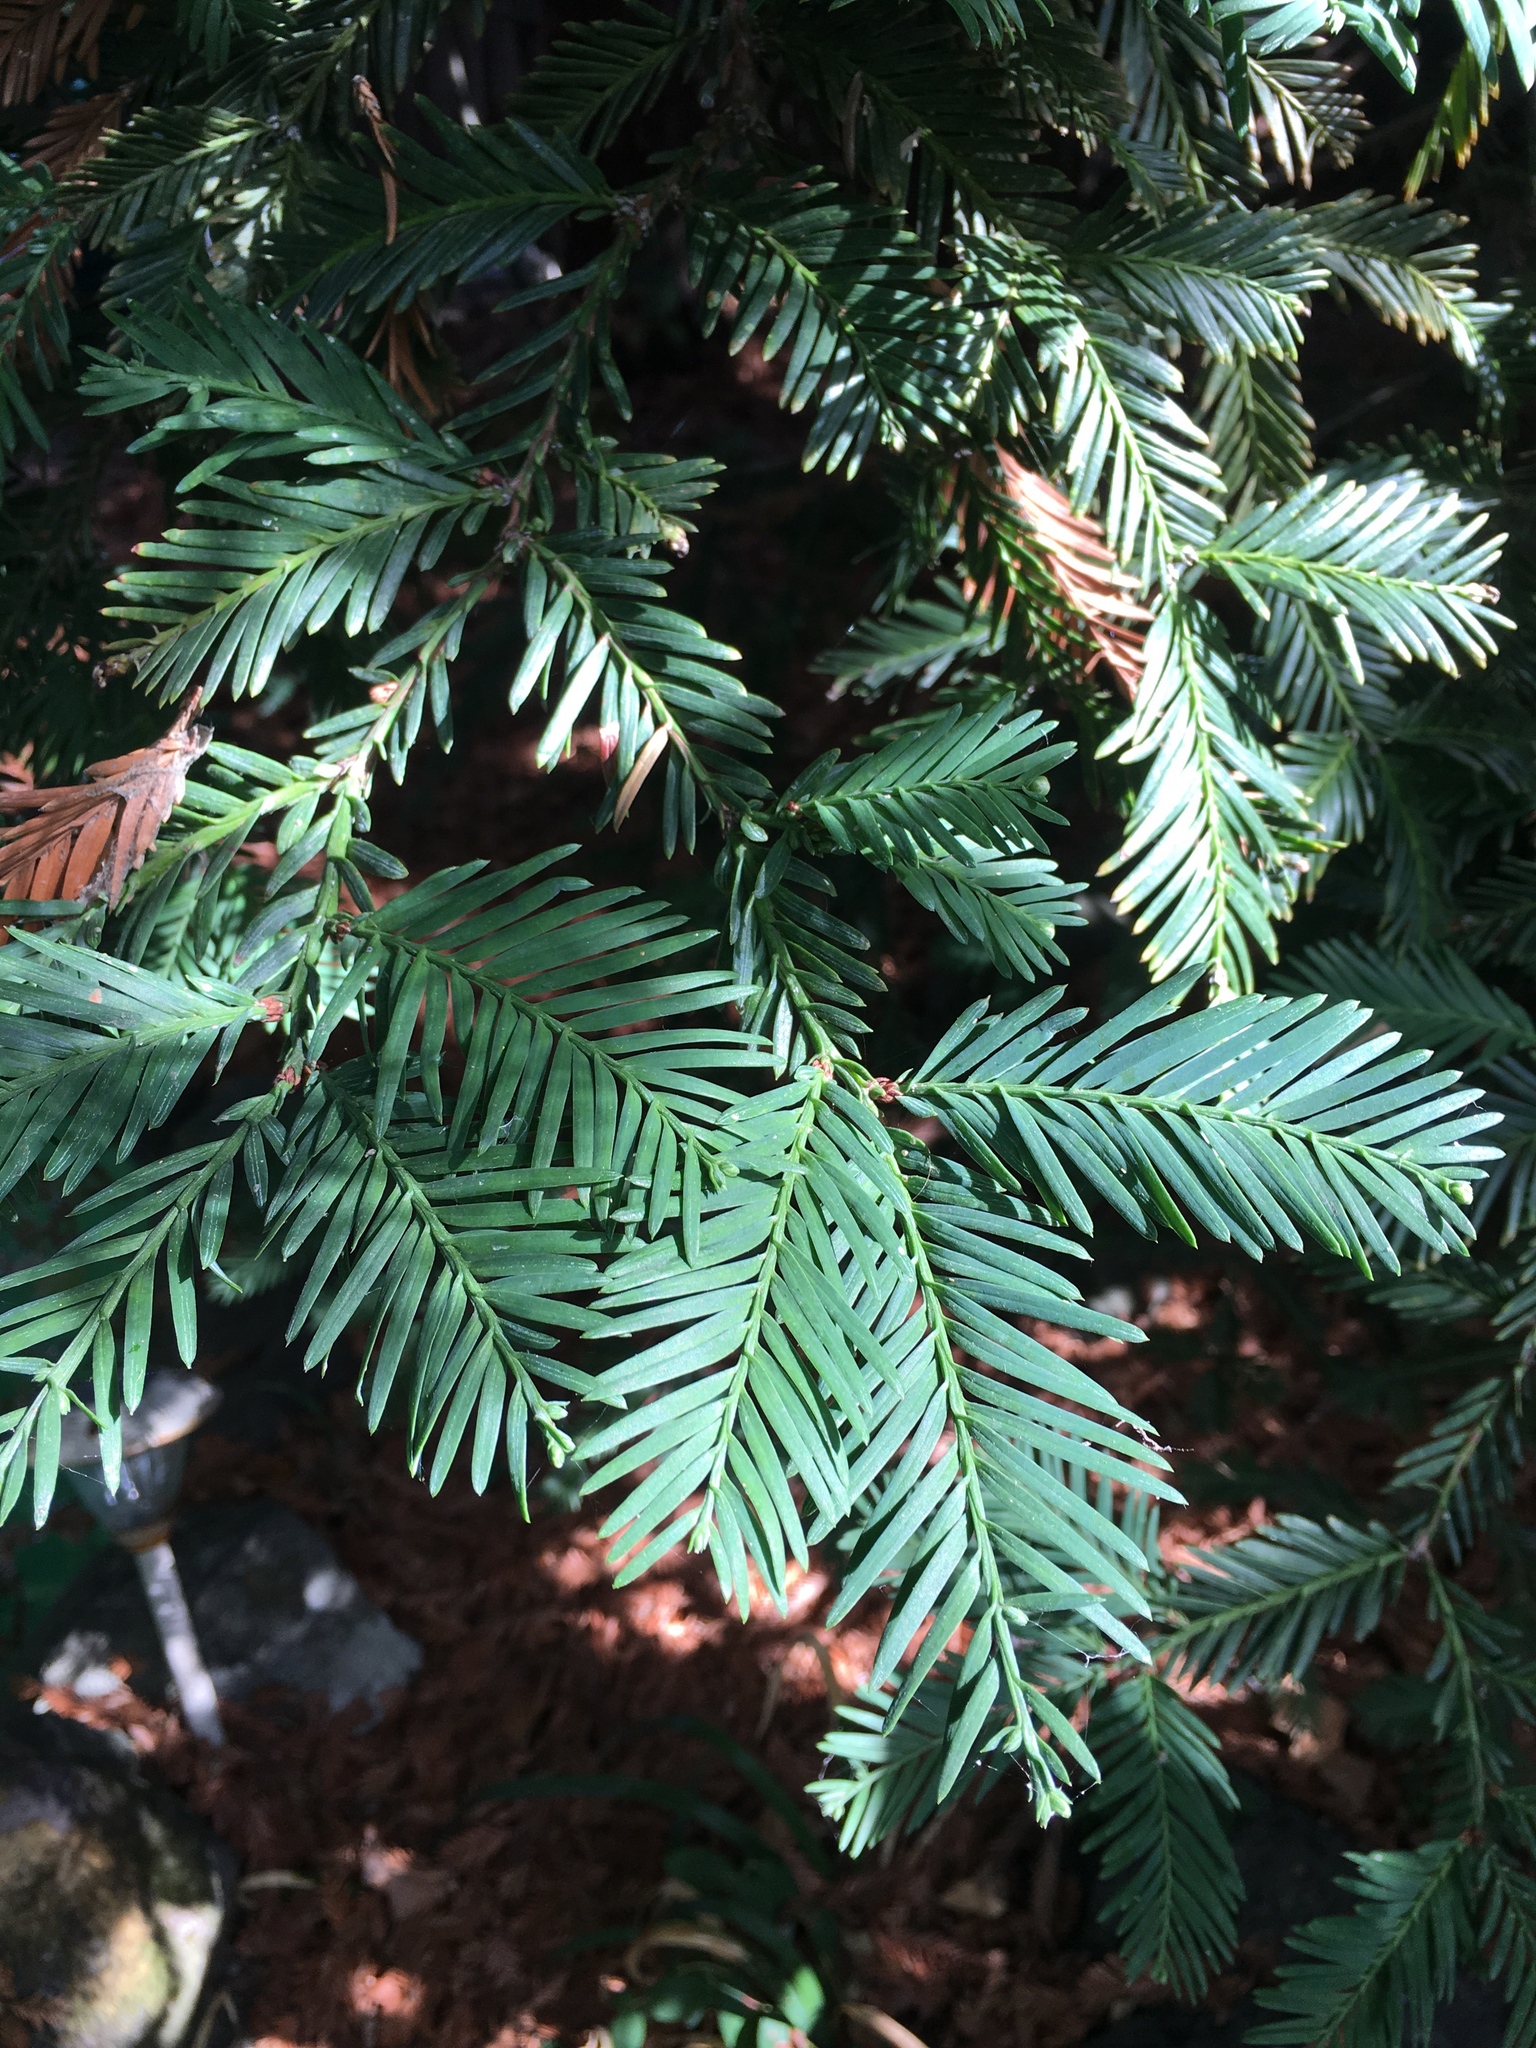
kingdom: Plantae
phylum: Tracheophyta
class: Pinopsida
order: Pinales
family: Cupressaceae
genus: Sequoia
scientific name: Sequoia sempervirens
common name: Coast redwood
